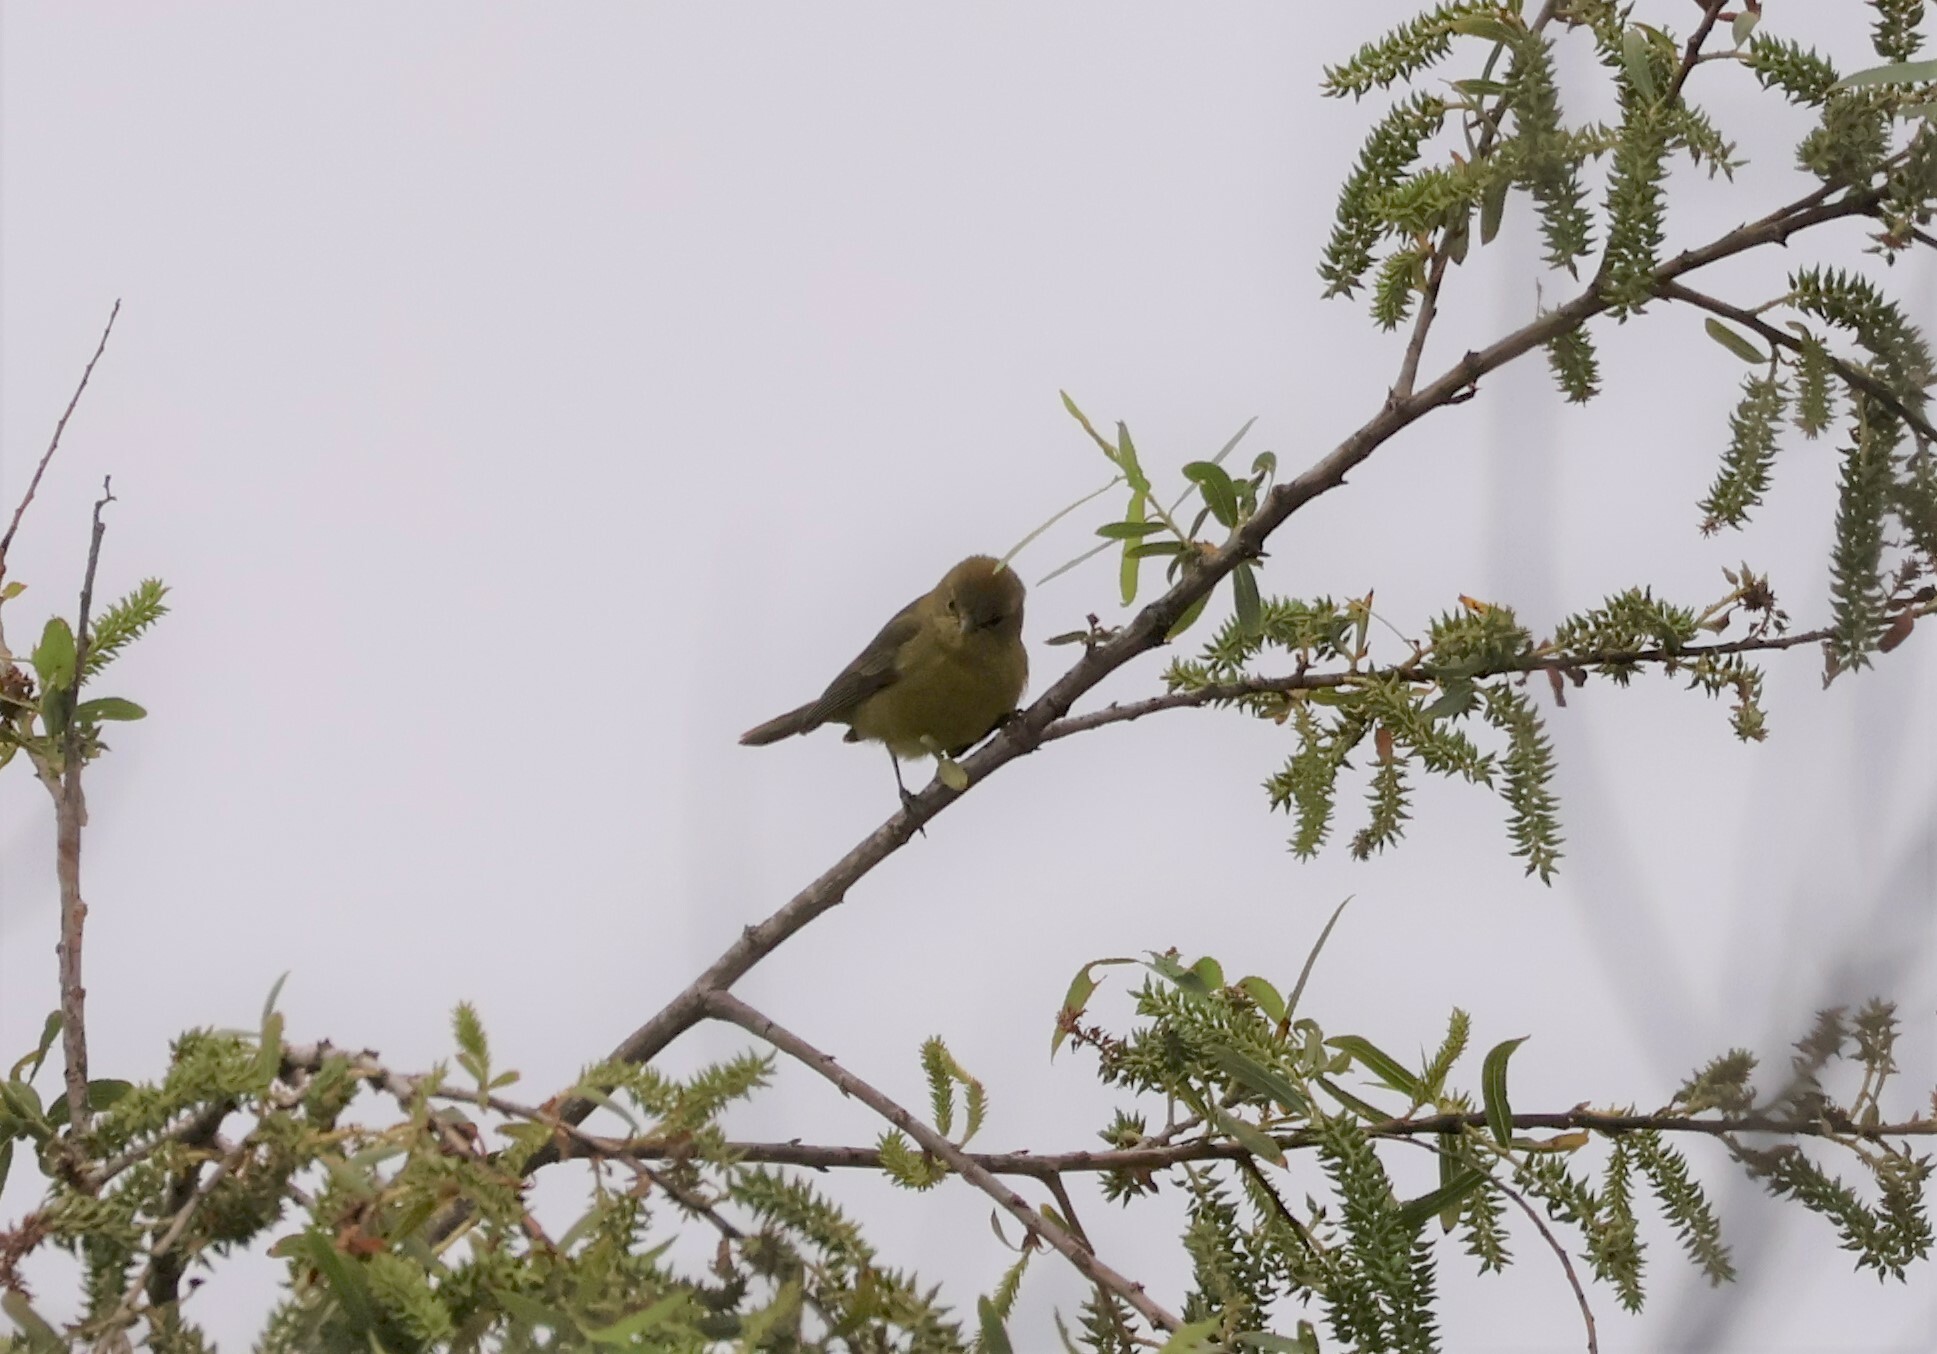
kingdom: Animalia
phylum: Chordata
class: Aves
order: Passeriformes
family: Parulidae
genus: Leiothlypis
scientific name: Leiothlypis celata
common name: Orange-crowned warbler
